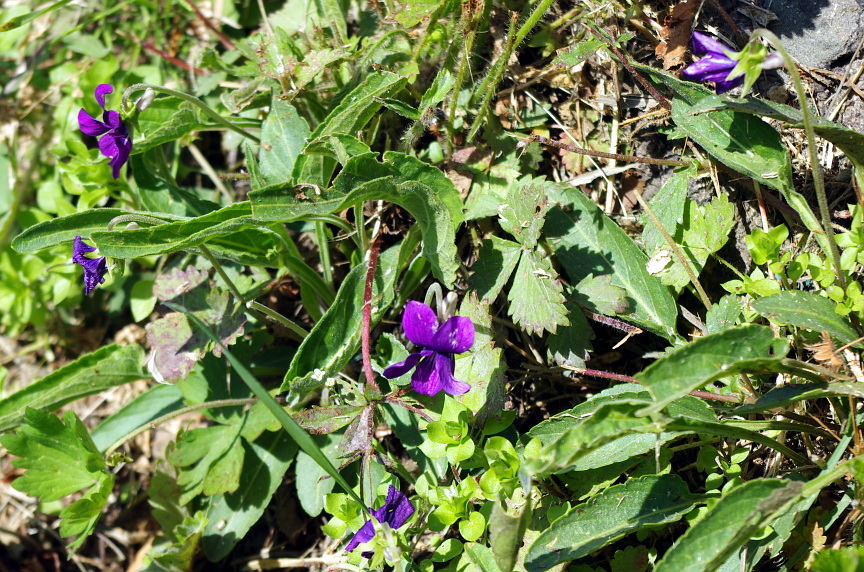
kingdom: Plantae
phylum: Tracheophyta
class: Magnoliopsida
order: Malpighiales
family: Violaceae
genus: Viola
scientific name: Viola mandshurica
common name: Manchuria violet
